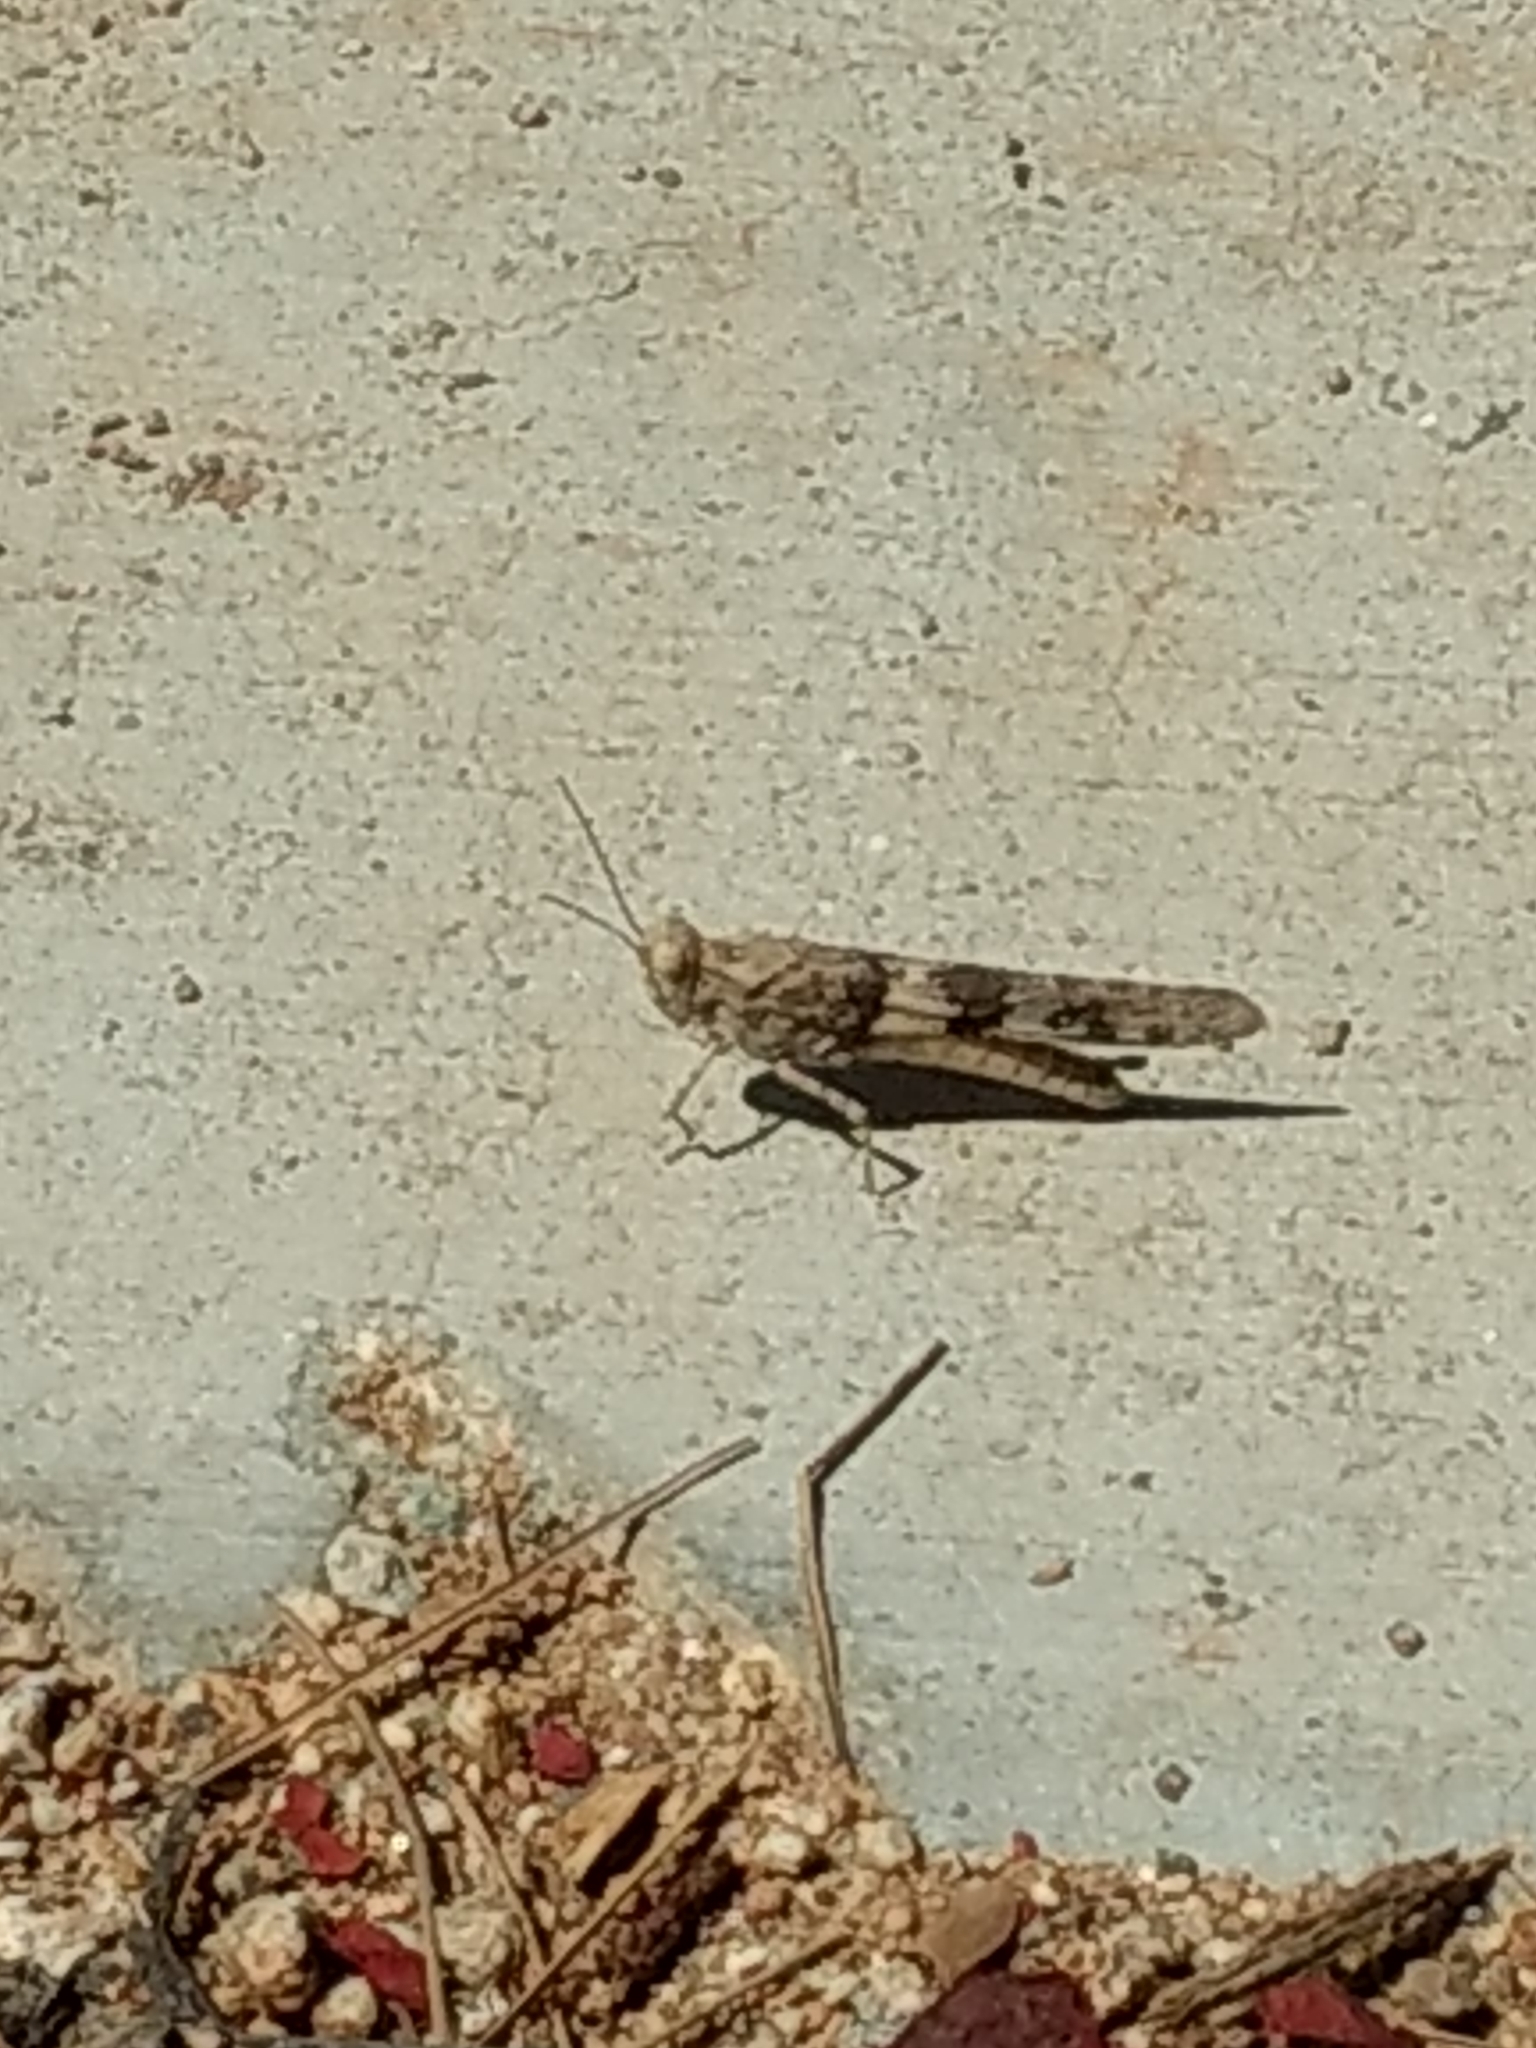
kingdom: Animalia
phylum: Arthropoda
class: Insecta
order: Orthoptera
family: Acrididae
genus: Trimerotropis
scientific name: Trimerotropis pallidipennis
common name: Pallid-winged grasshopper
